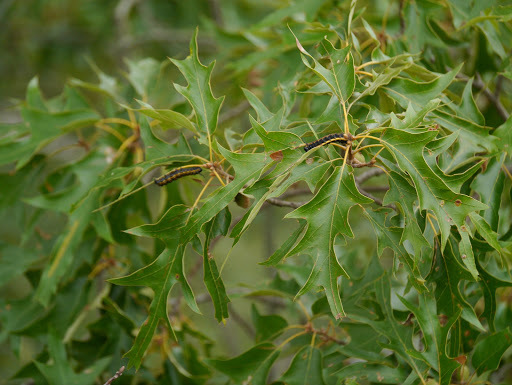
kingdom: Animalia
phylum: Arthropoda
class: Insecta
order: Lepidoptera
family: Saturniidae
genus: Anisota
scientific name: Anisota senatoria
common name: Orange-striped oakworm moth
